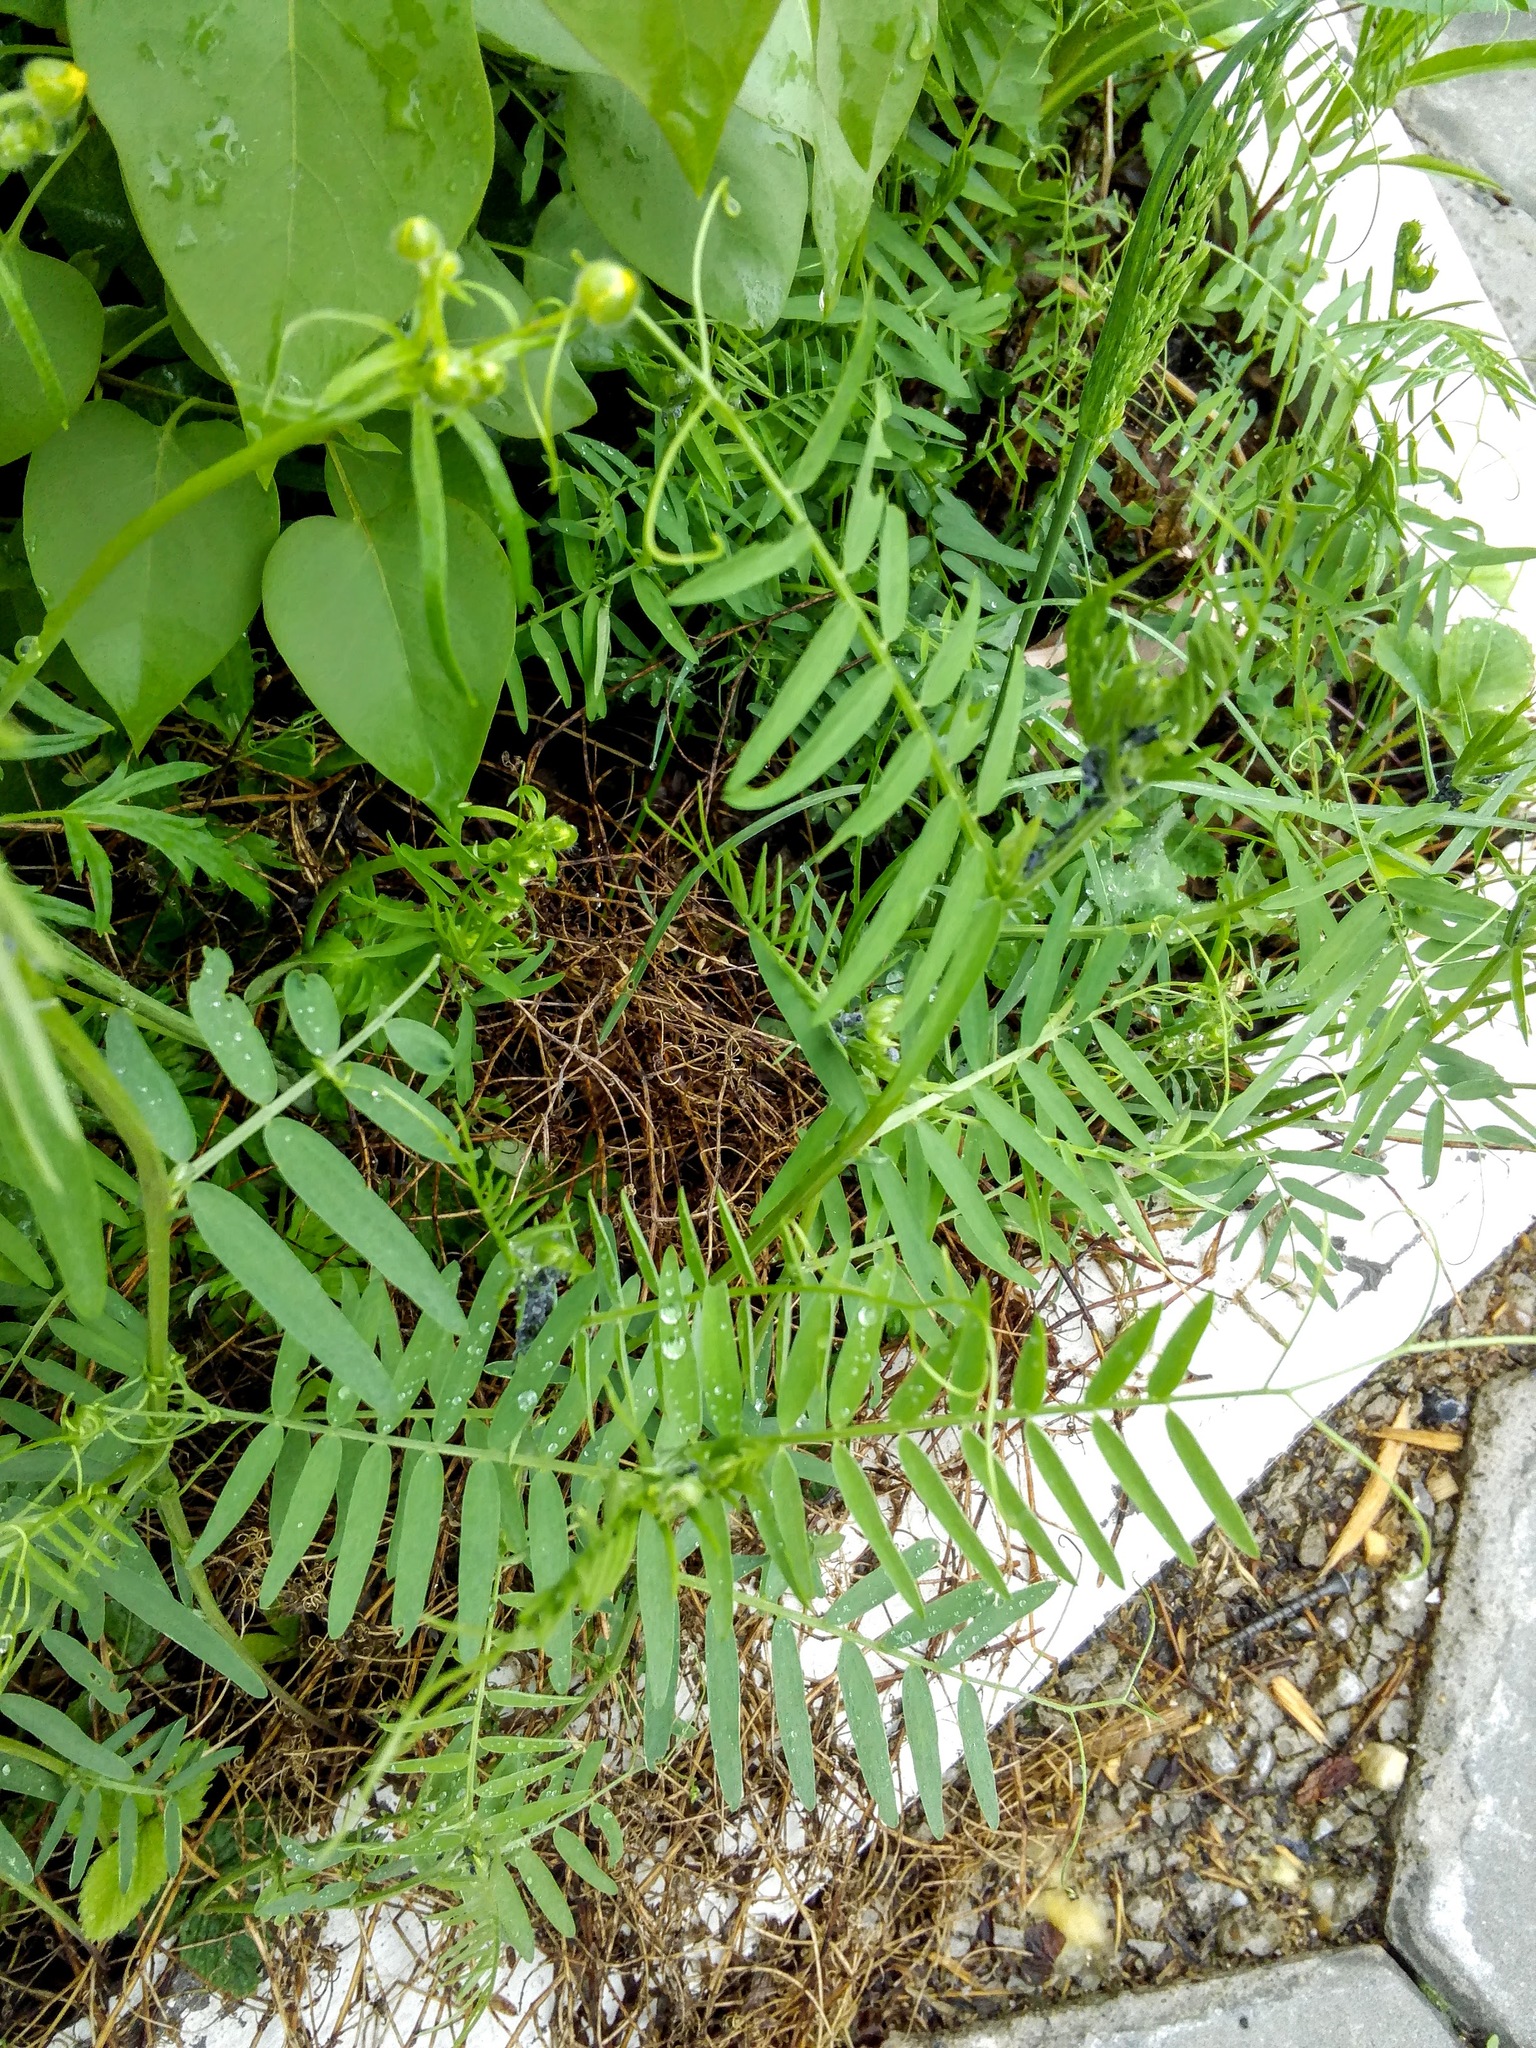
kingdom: Plantae
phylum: Tracheophyta
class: Magnoliopsida
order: Fabales
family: Fabaceae
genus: Vicia
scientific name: Vicia cracca
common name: Bird vetch
